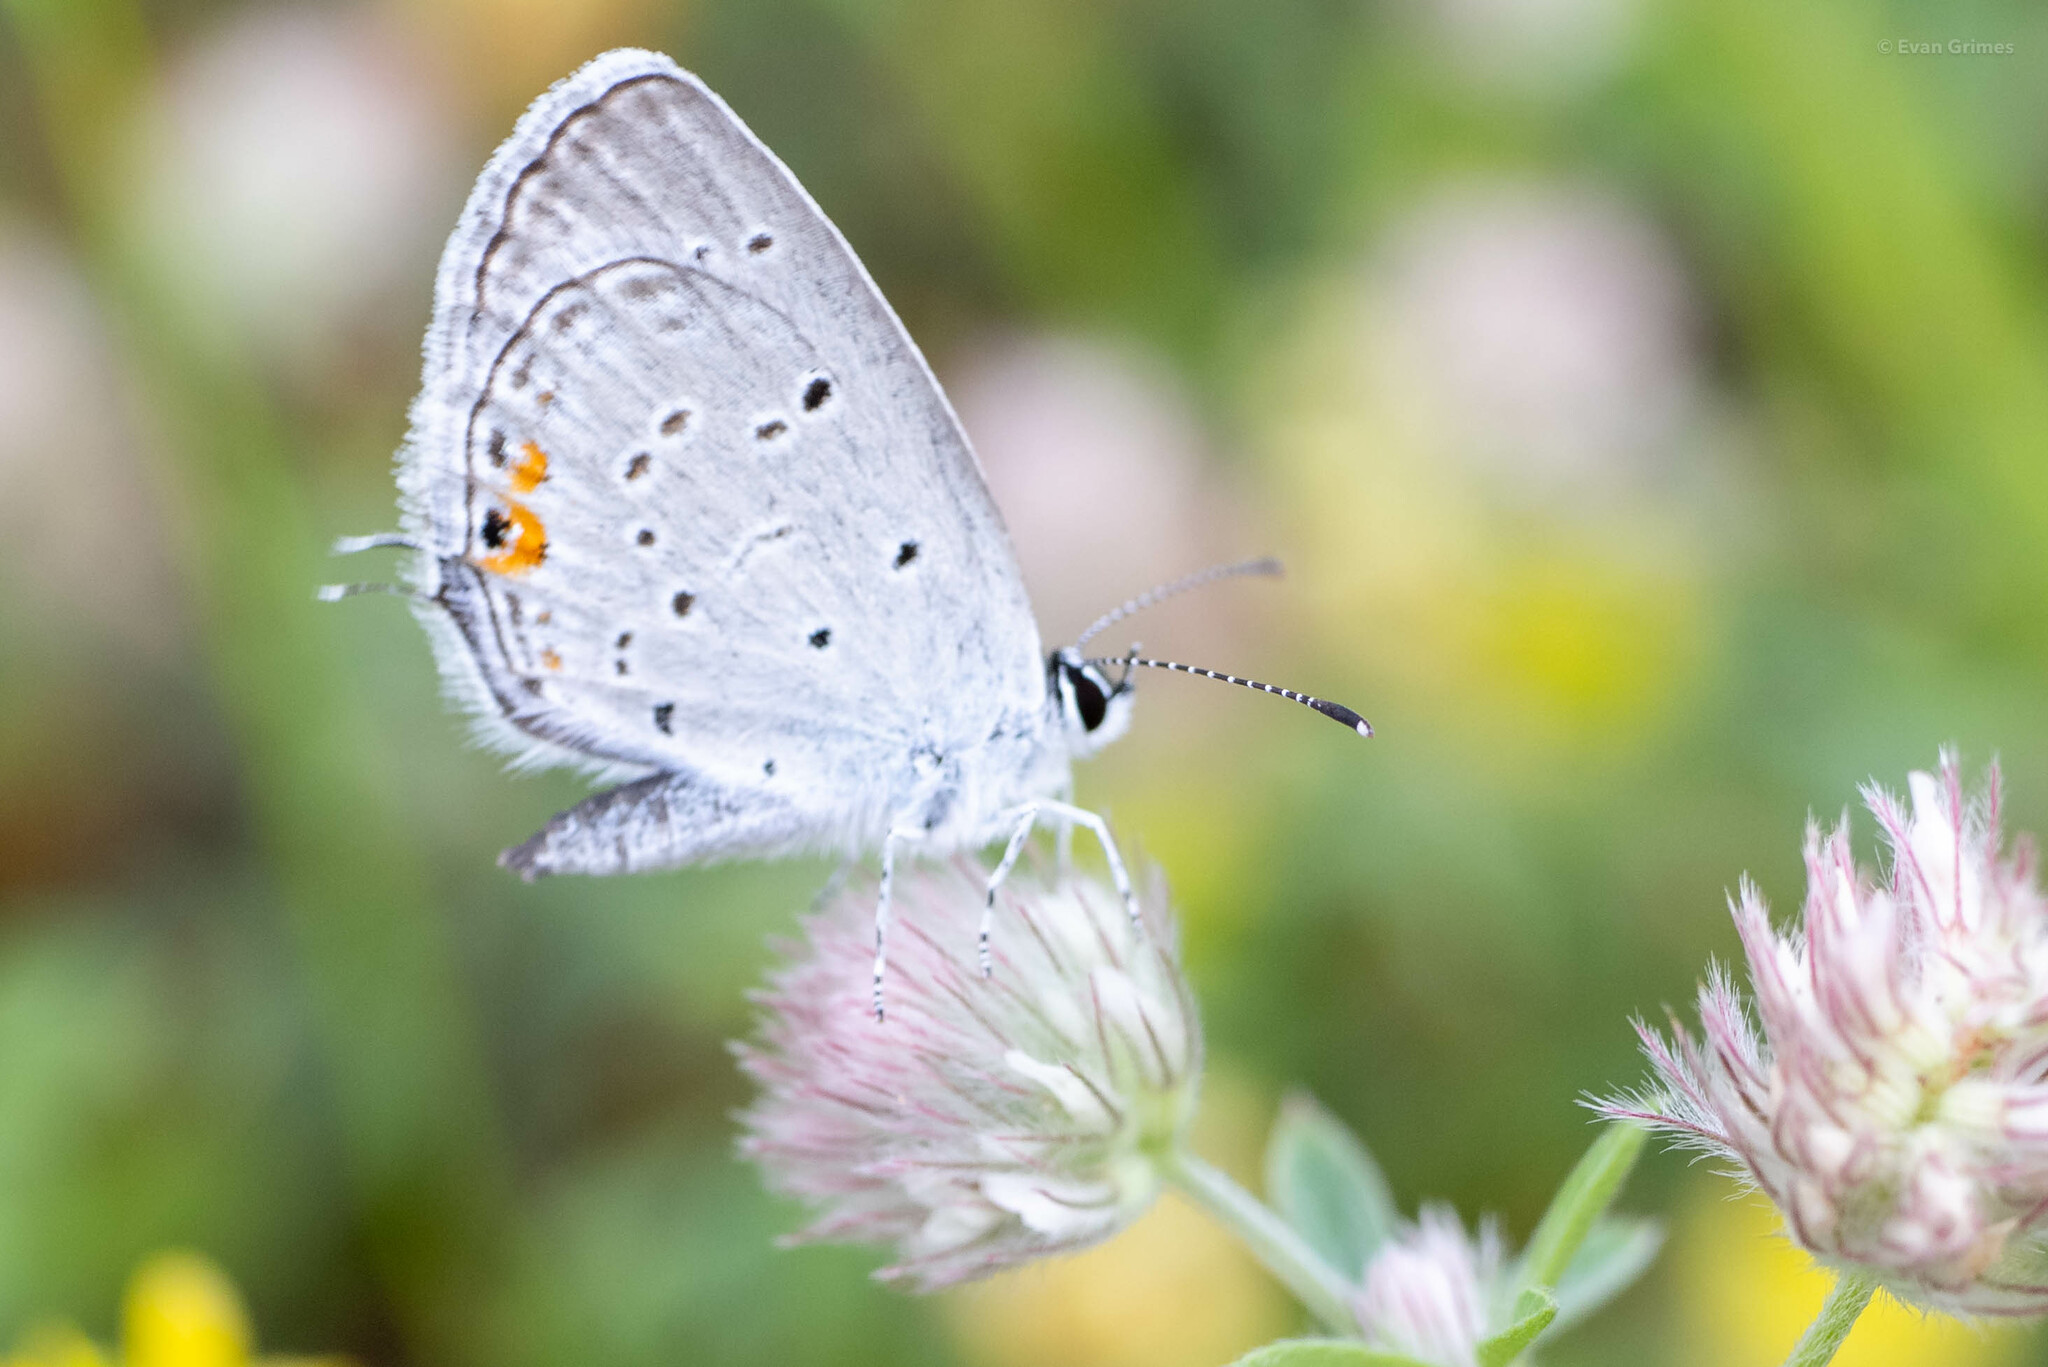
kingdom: Animalia
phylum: Arthropoda
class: Insecta
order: Lepidoptera
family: Lycaenidae
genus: Elkalyce
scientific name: Elkalyce comyntas
